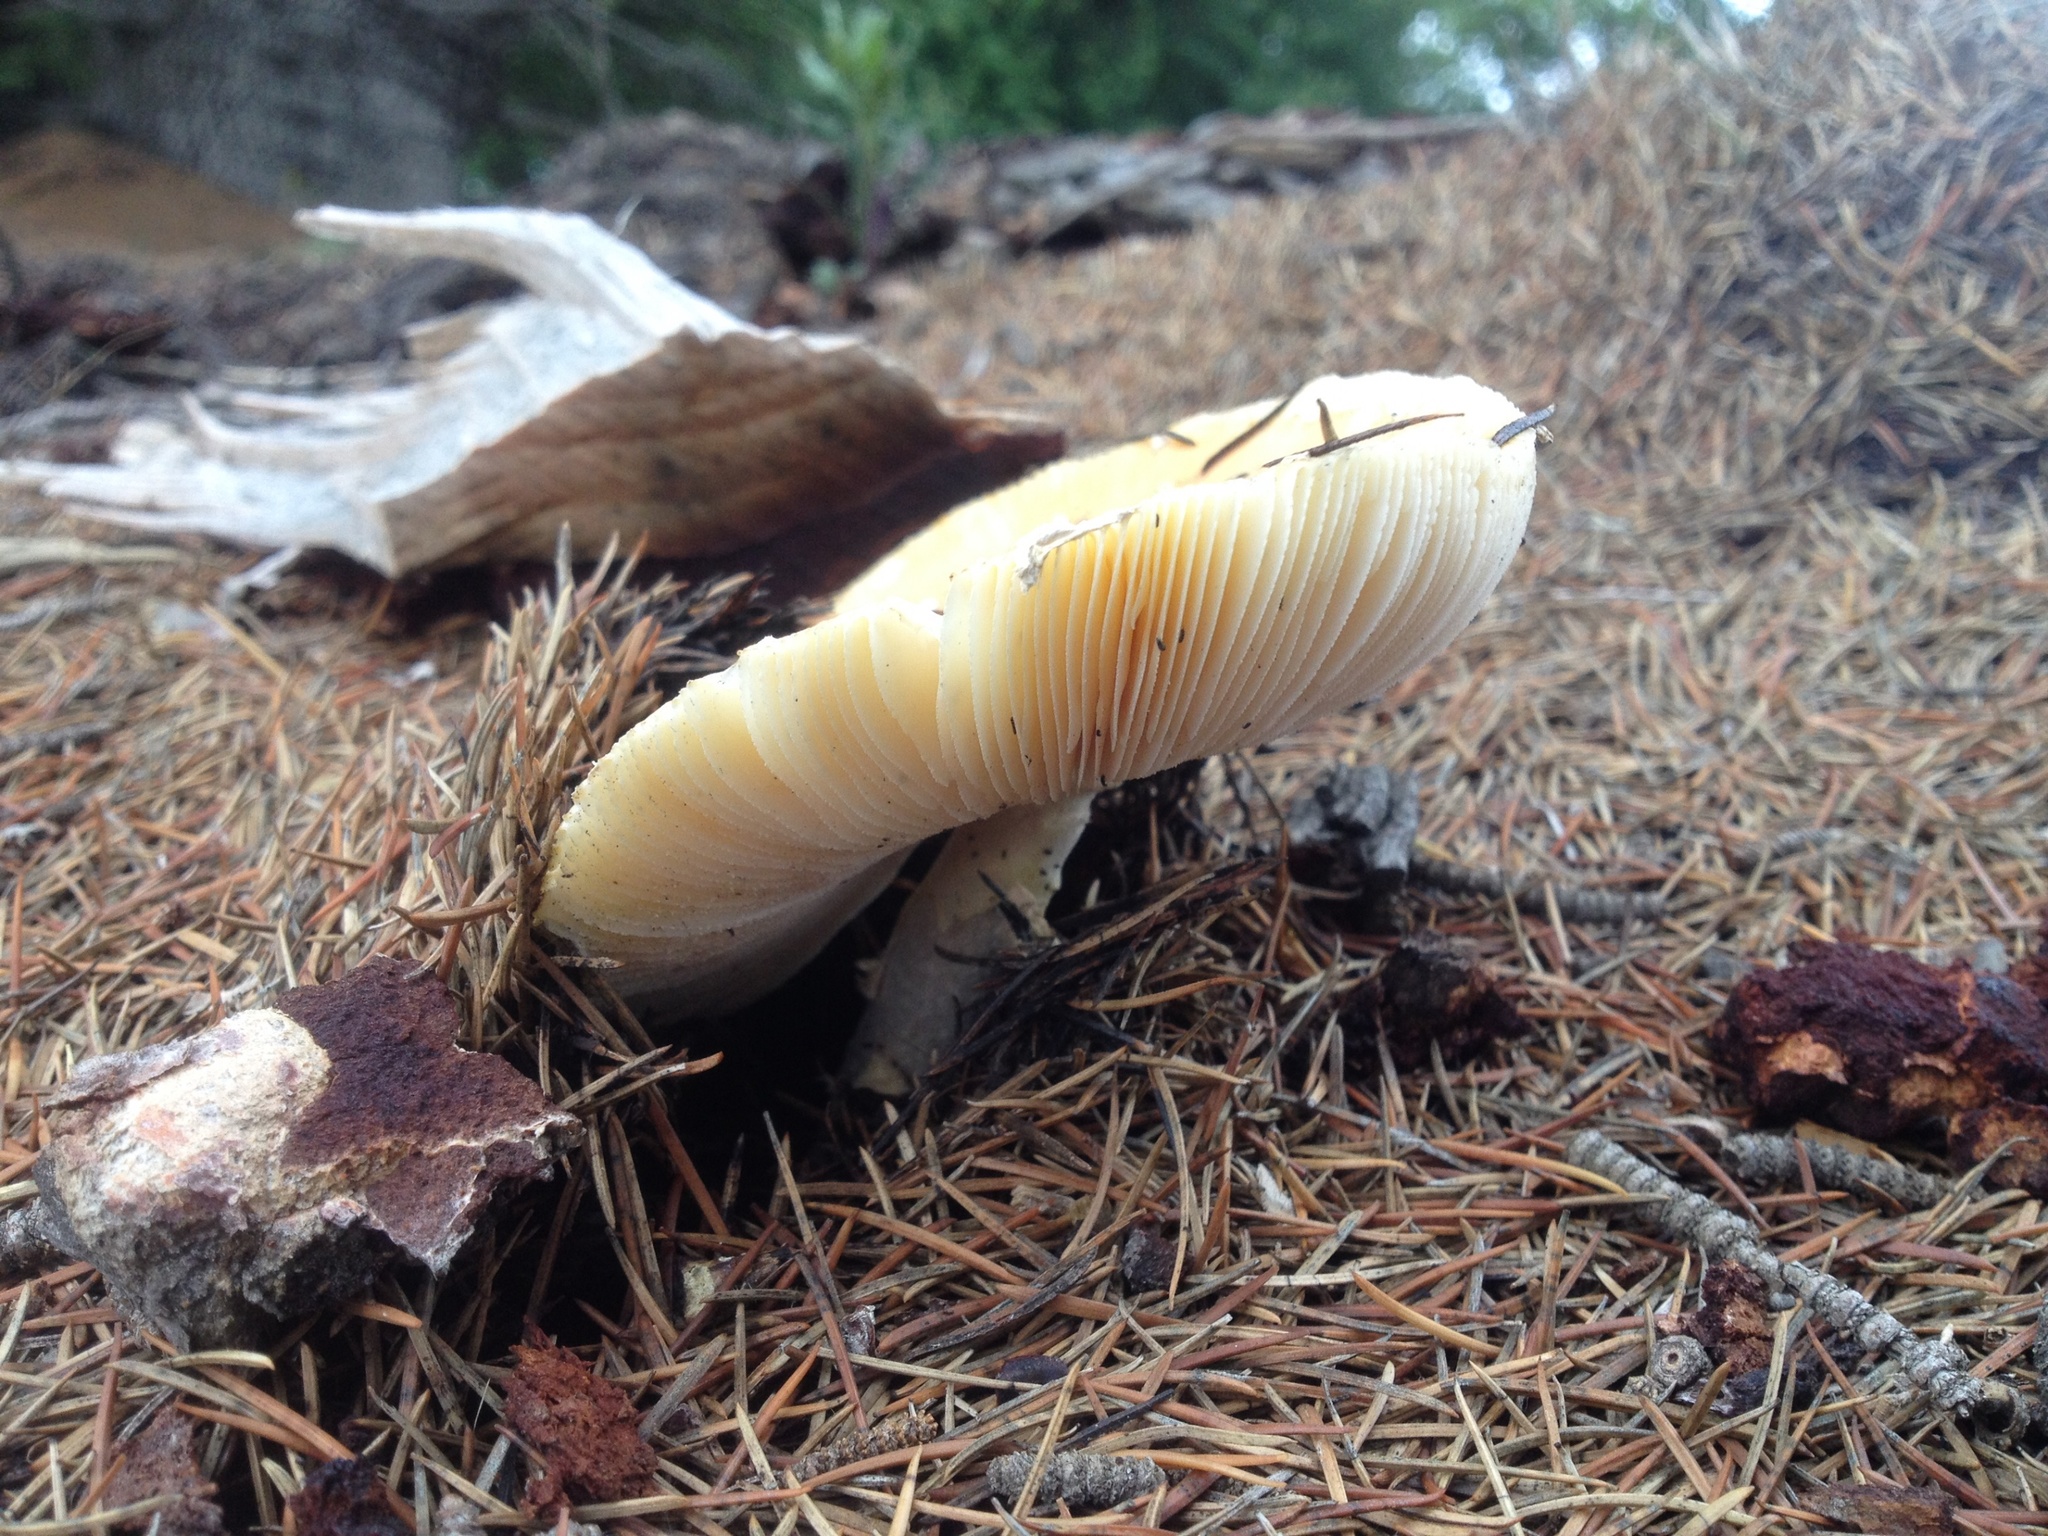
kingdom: Fungi
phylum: Basidiomycota
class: Agaricomycetes
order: Agaricales
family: Amanitaceae
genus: Amanita
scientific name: Amanita muscaria
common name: Fly agaric
